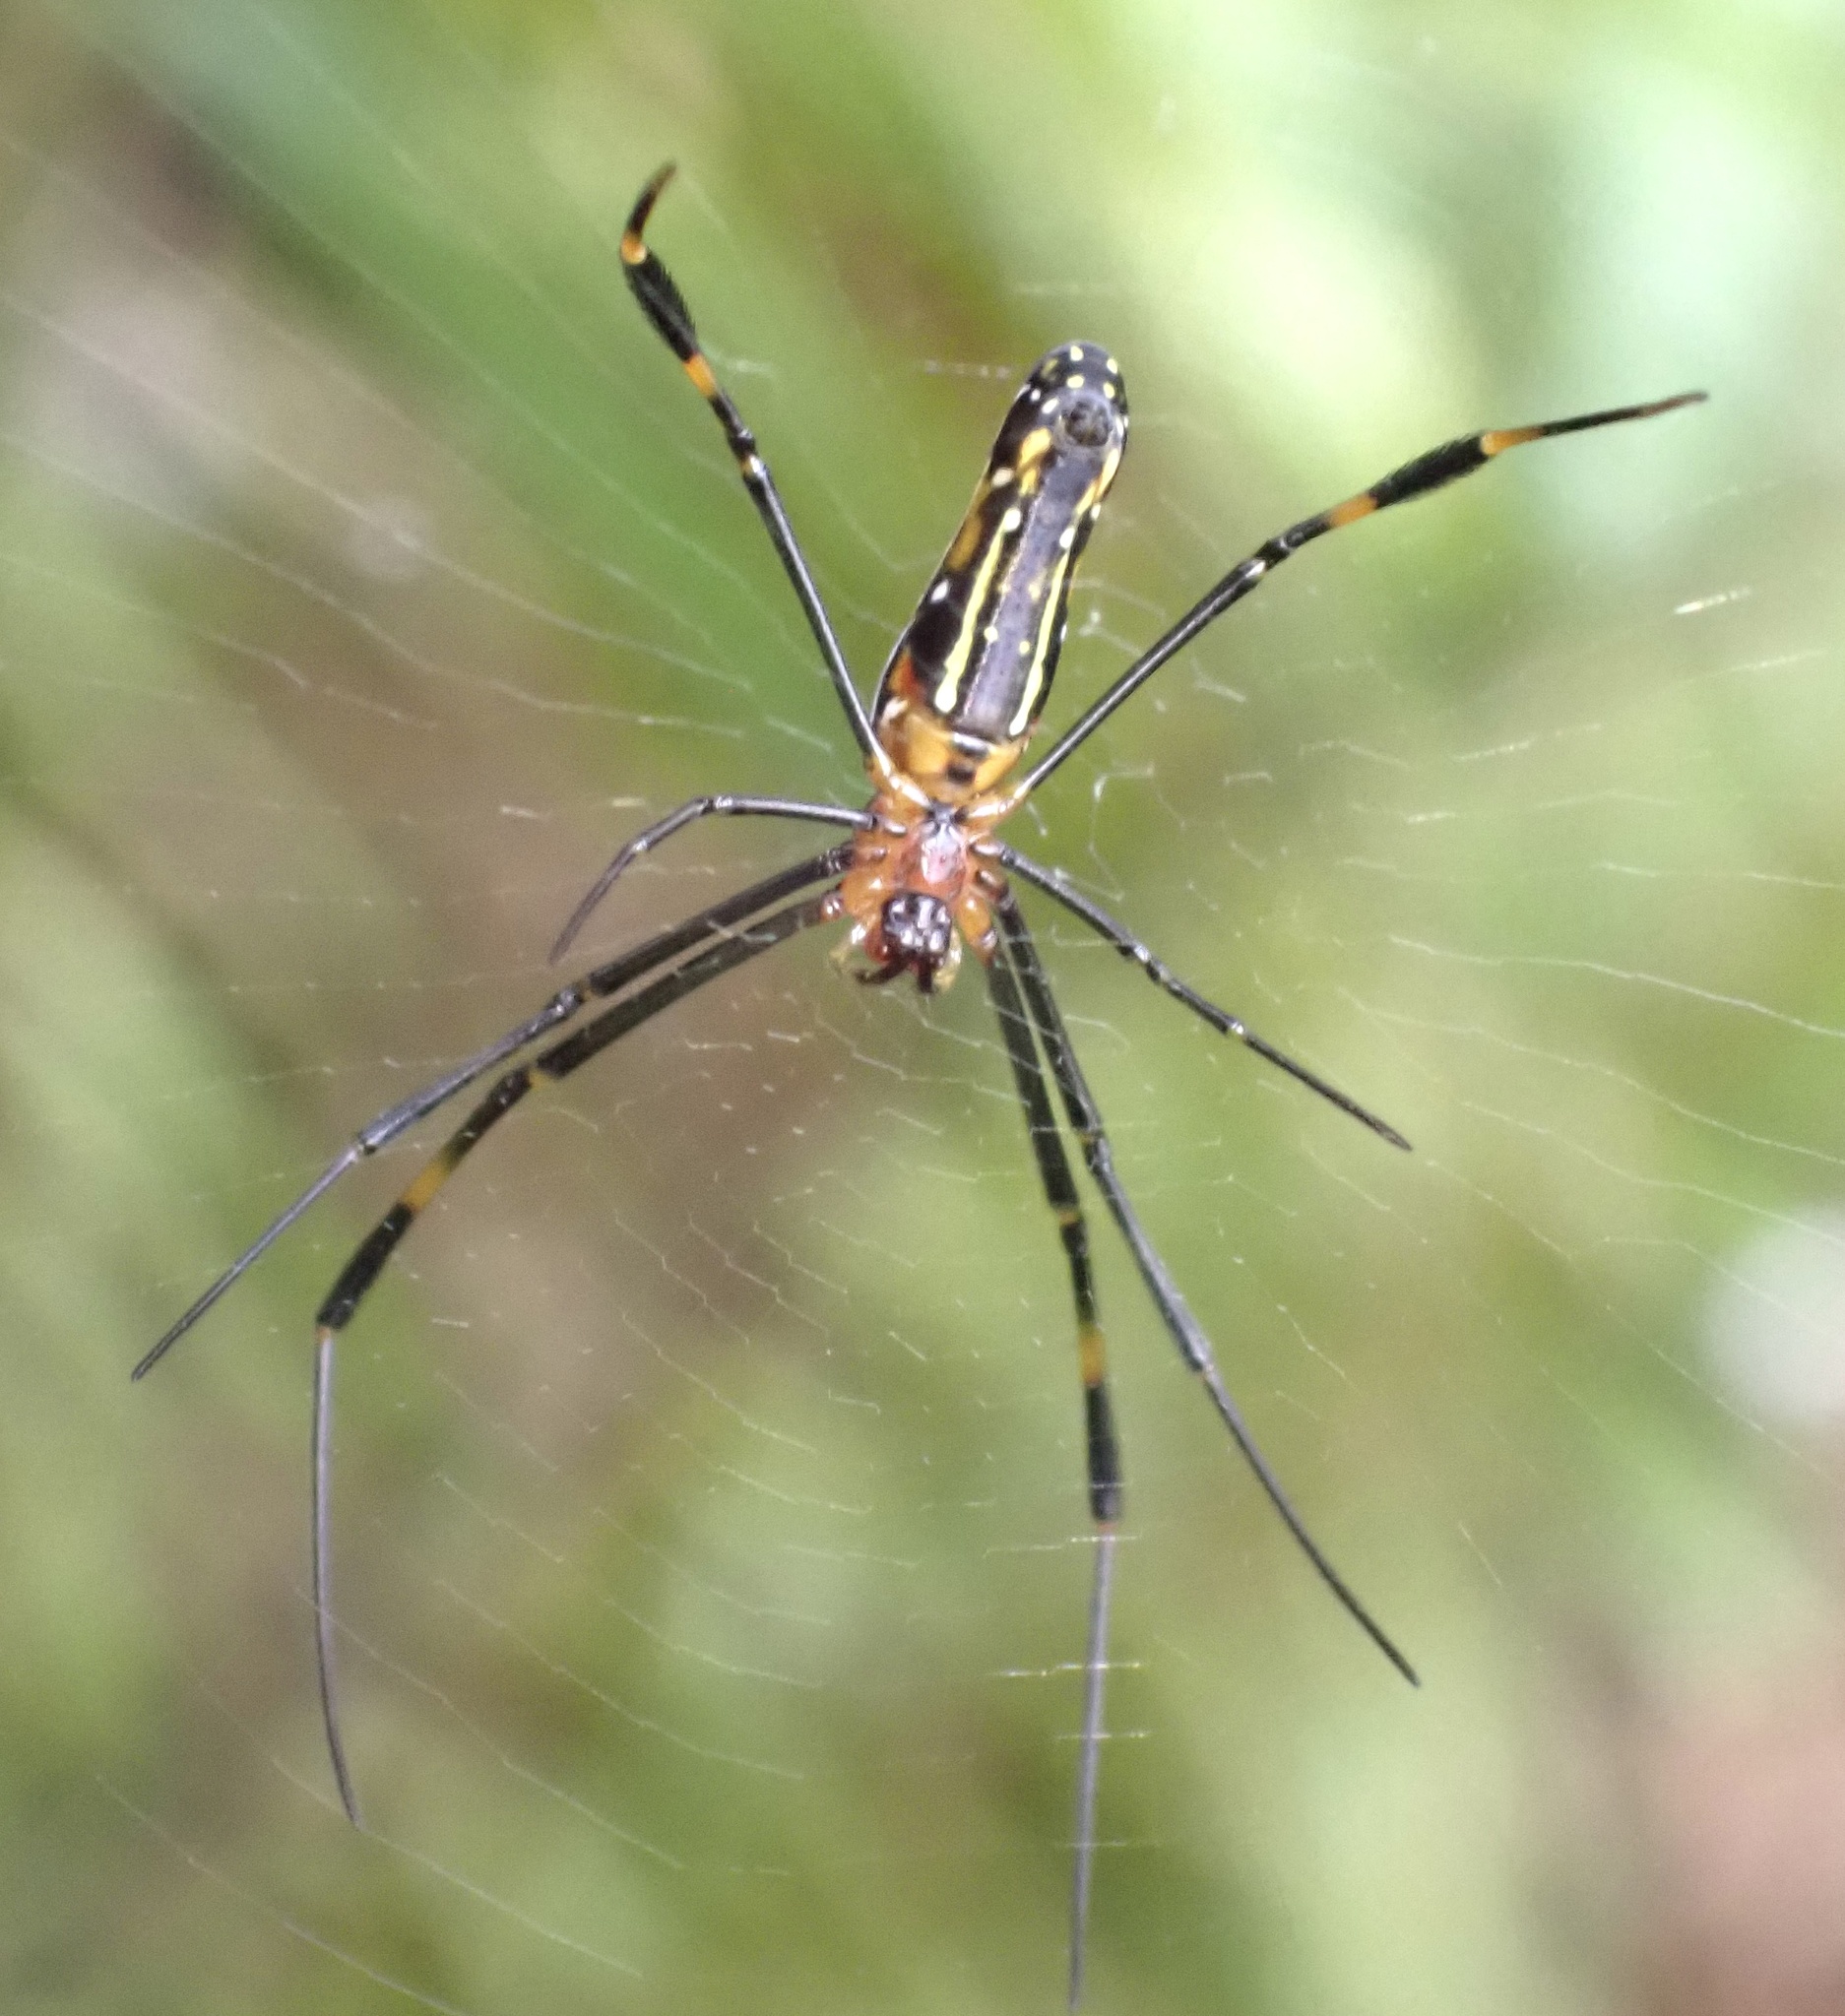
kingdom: Animalia
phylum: Arthropoda
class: Arachnida
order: Araneae
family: Araneidae
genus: Nephila
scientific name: Nephila pilipes
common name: Giant golden orb weaver
